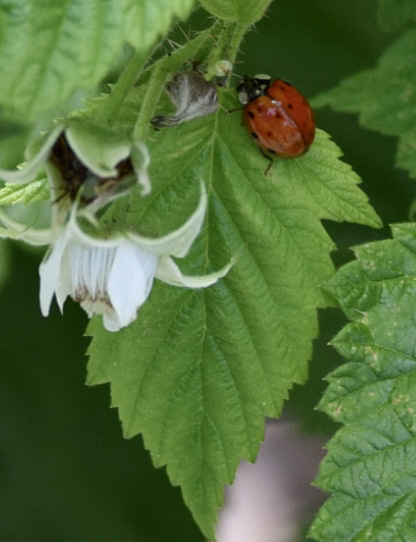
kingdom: Animalia
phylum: Arthropoda
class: Insecta
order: Coleoptera
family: Coccinellidae
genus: Harmonia
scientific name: Harmonia axyridis
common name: Harlequin ladybird
